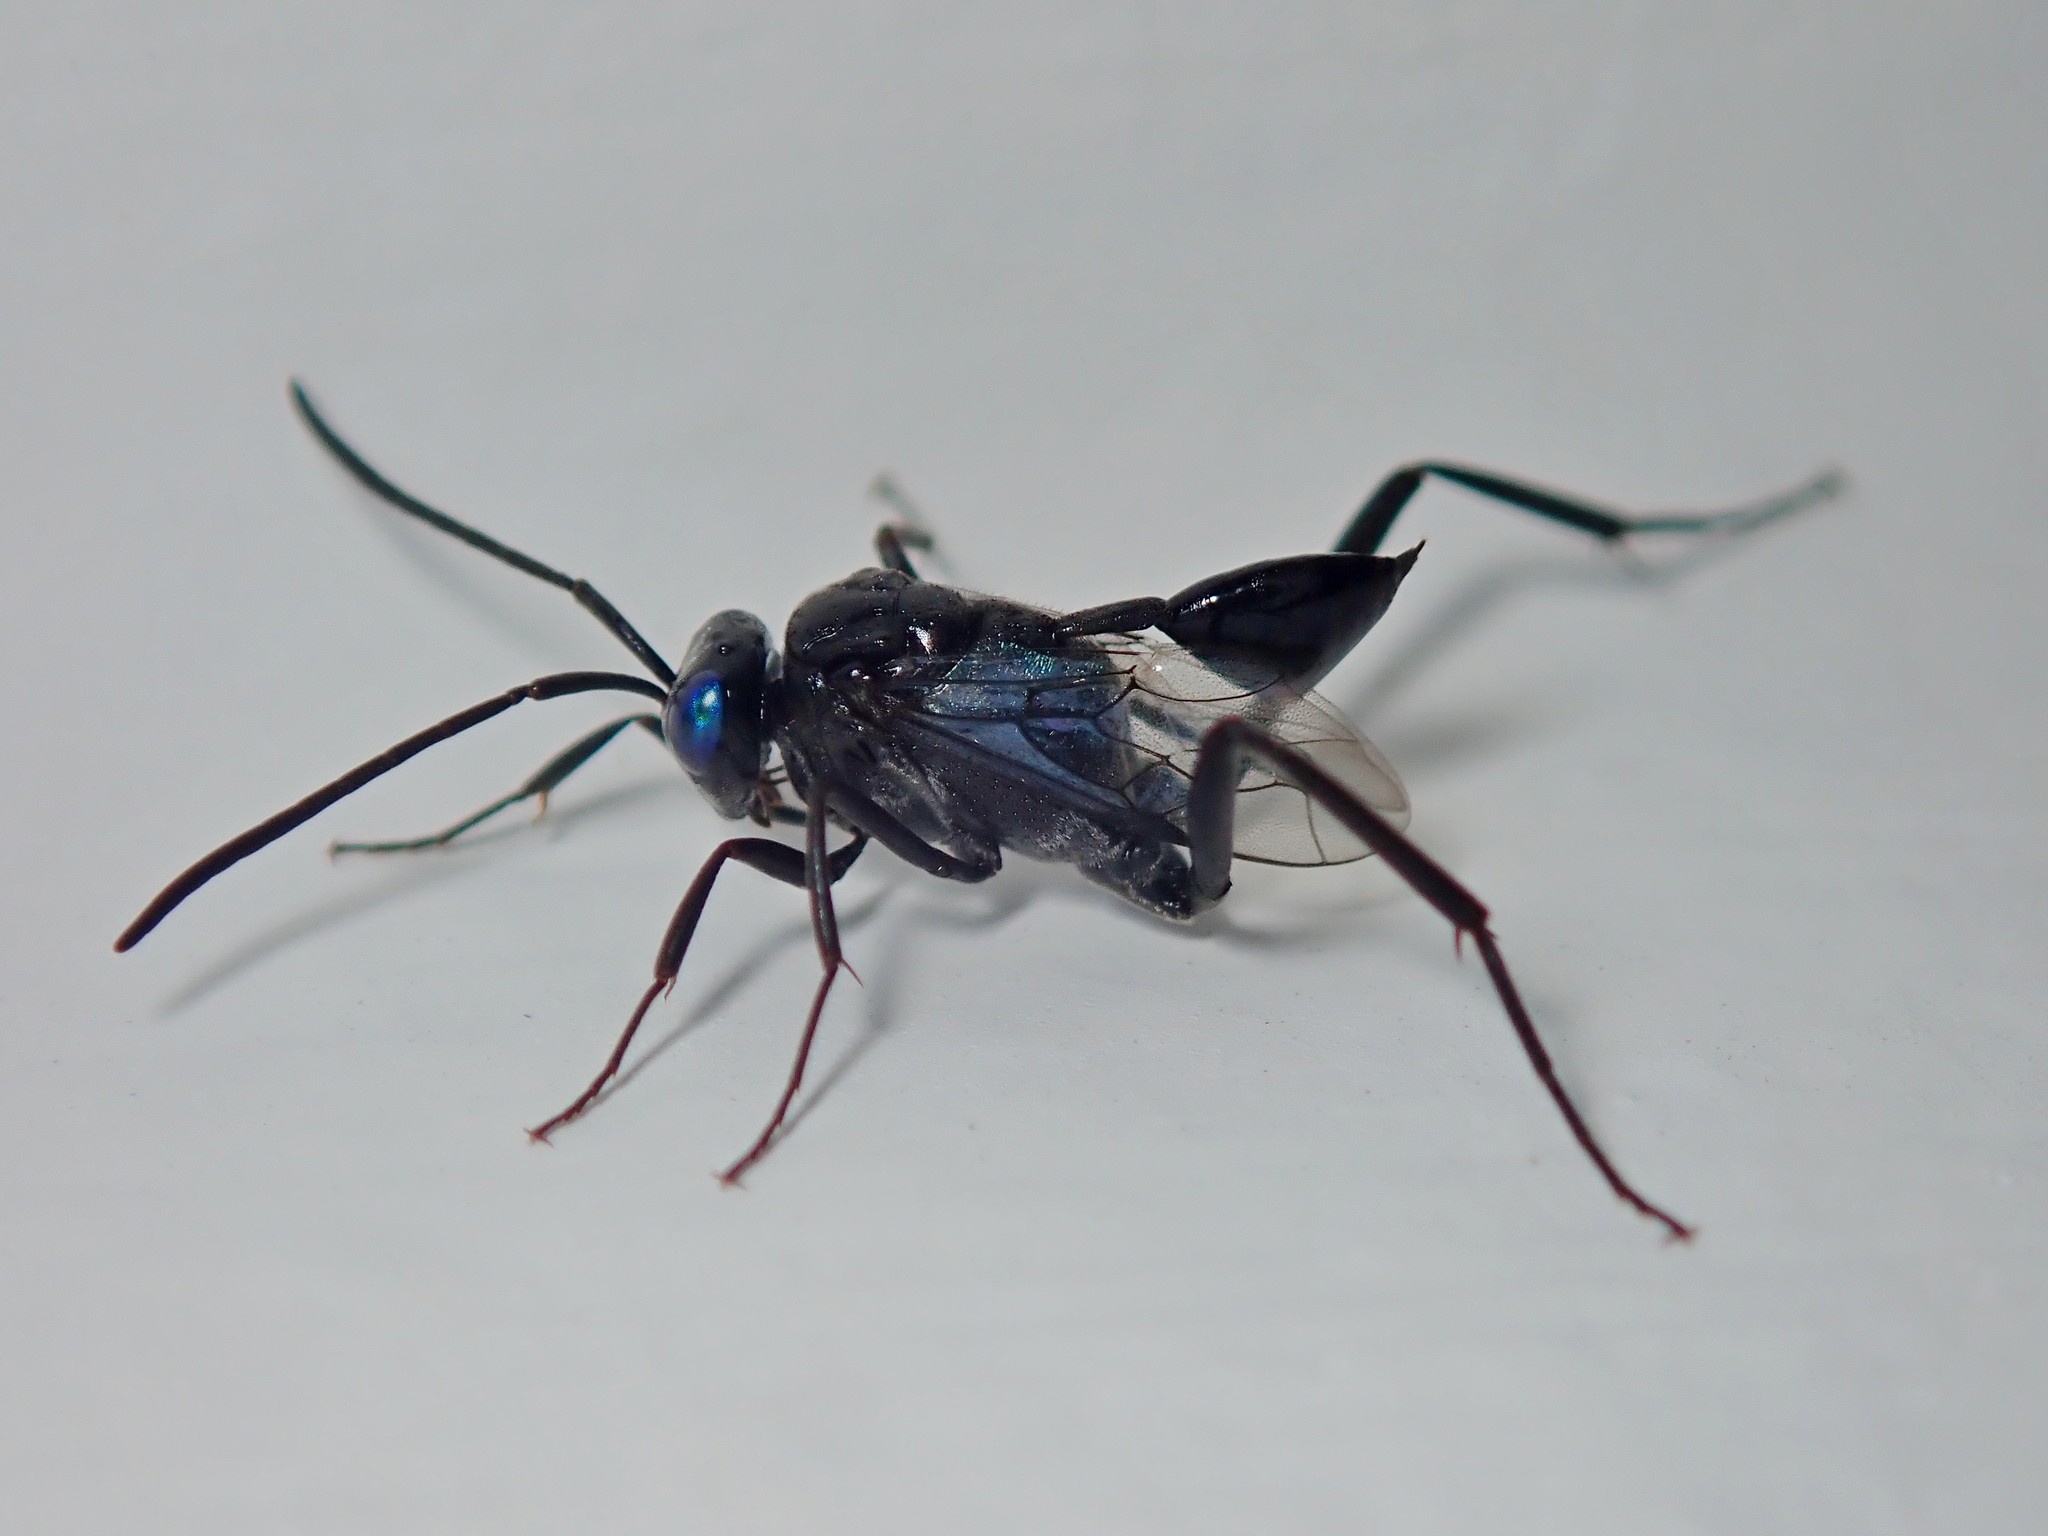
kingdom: Animalia
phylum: Arthropoda
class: Insecta
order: Hymenoptera
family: Evaniidae
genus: Evania
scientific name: Evania appendigaster
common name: Ensign wasp
